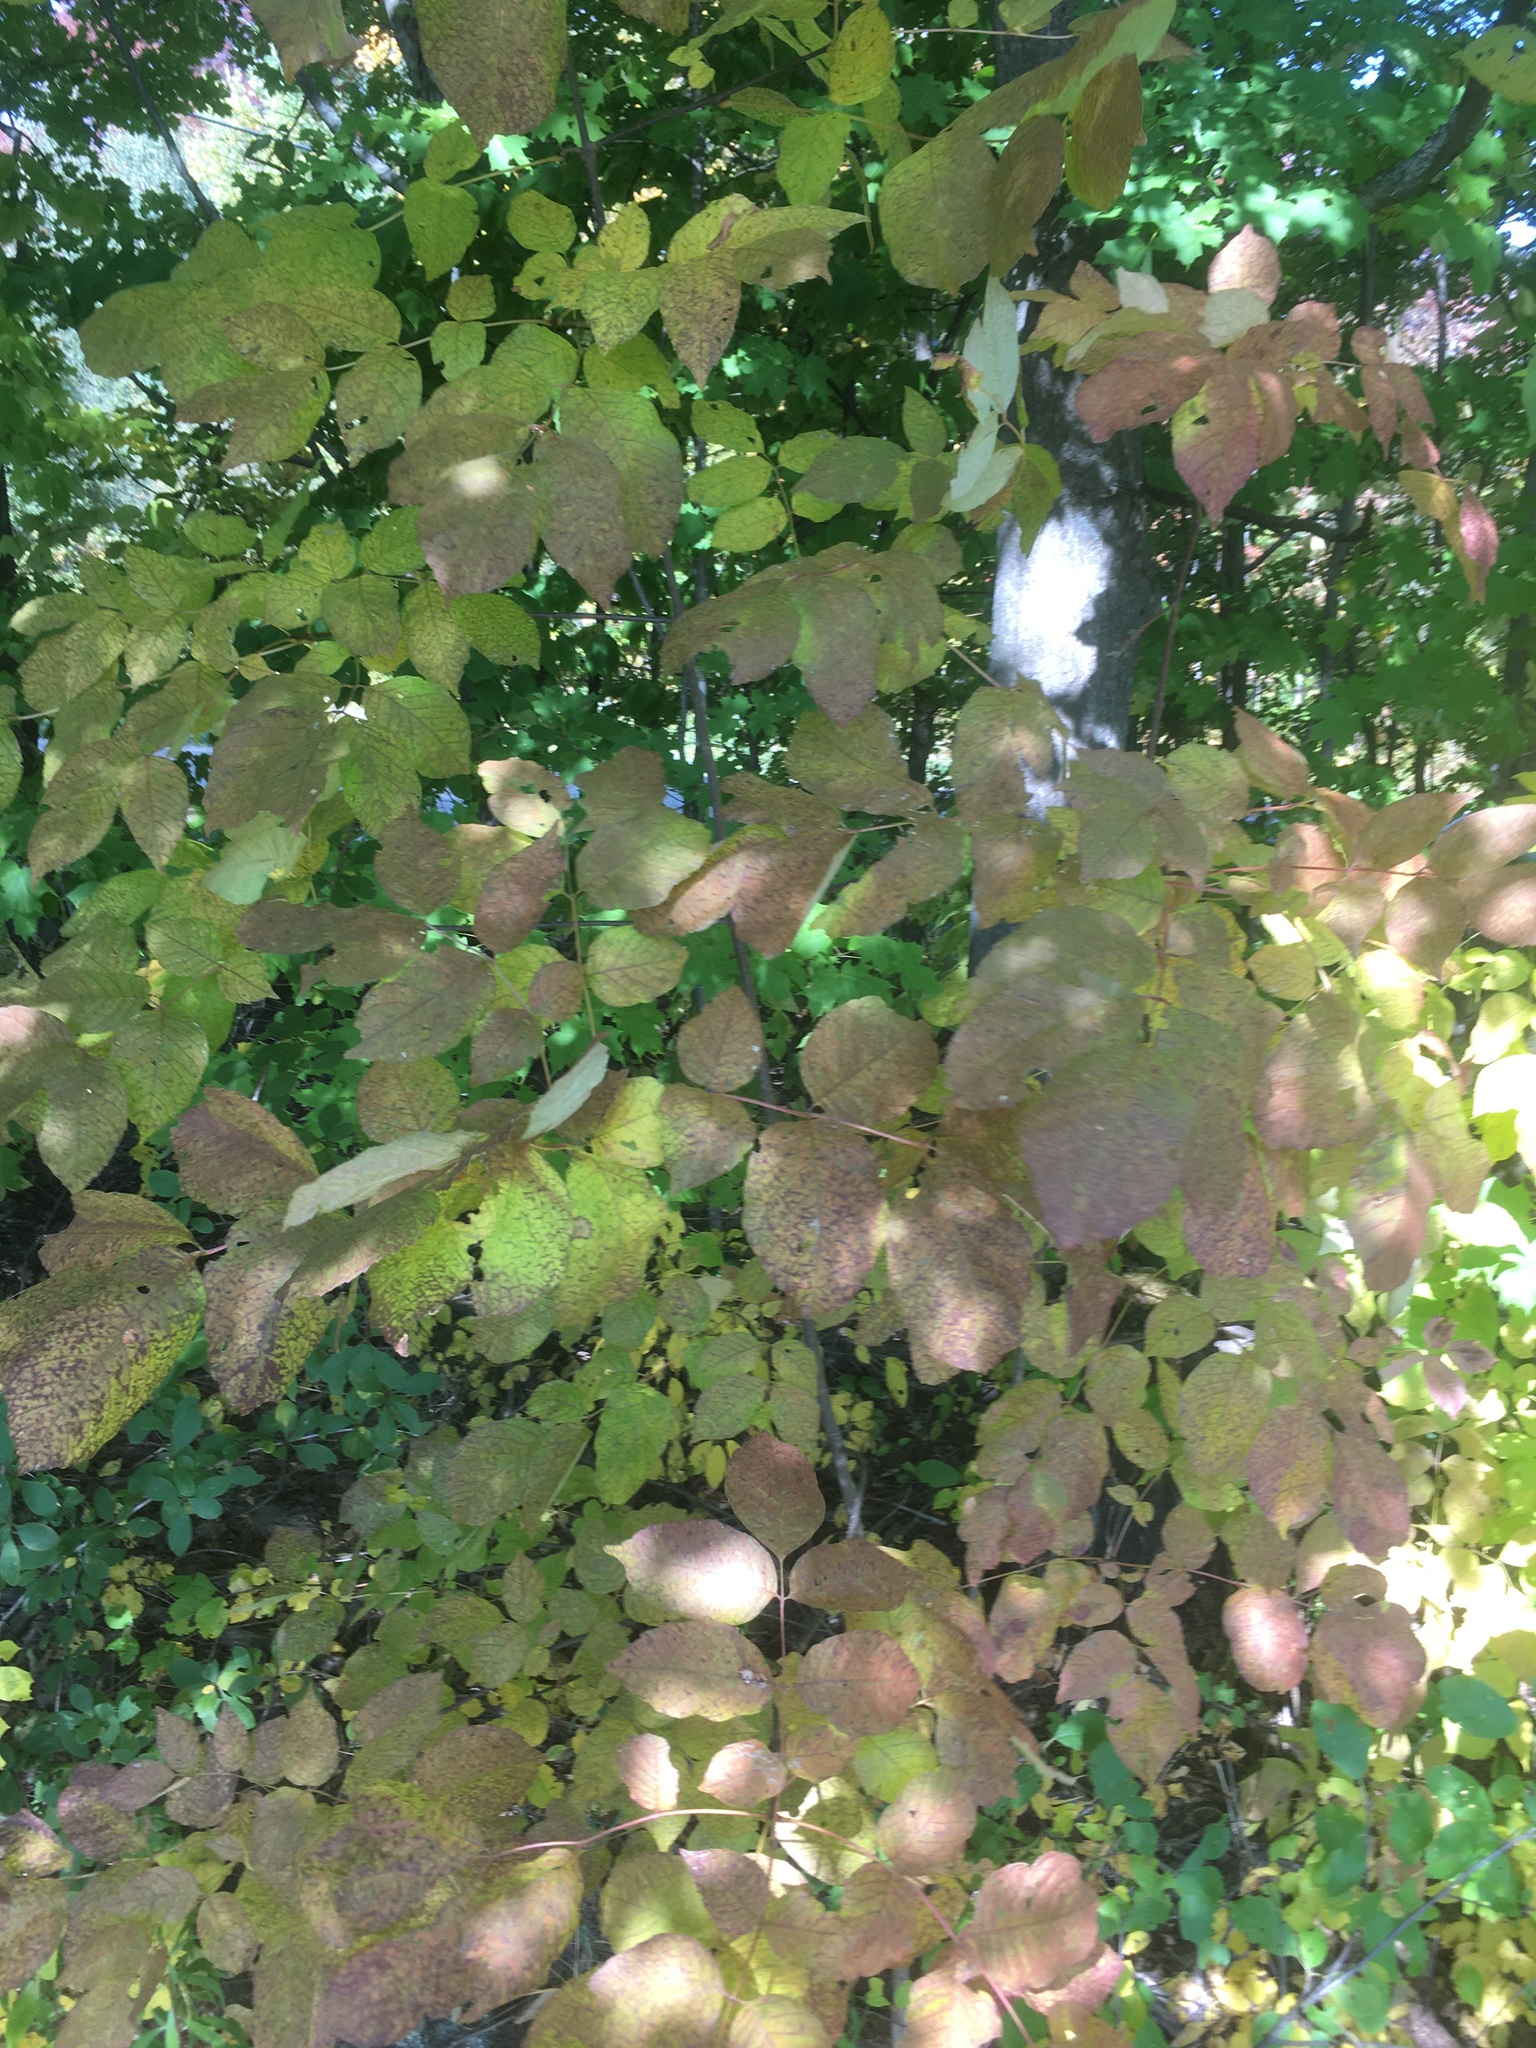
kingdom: Plantae
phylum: Tracheophyta
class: Magnoliopsida
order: Lamiales
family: Oleaceae
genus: Fraxinus
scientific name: Fraxinus americana
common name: White ash
